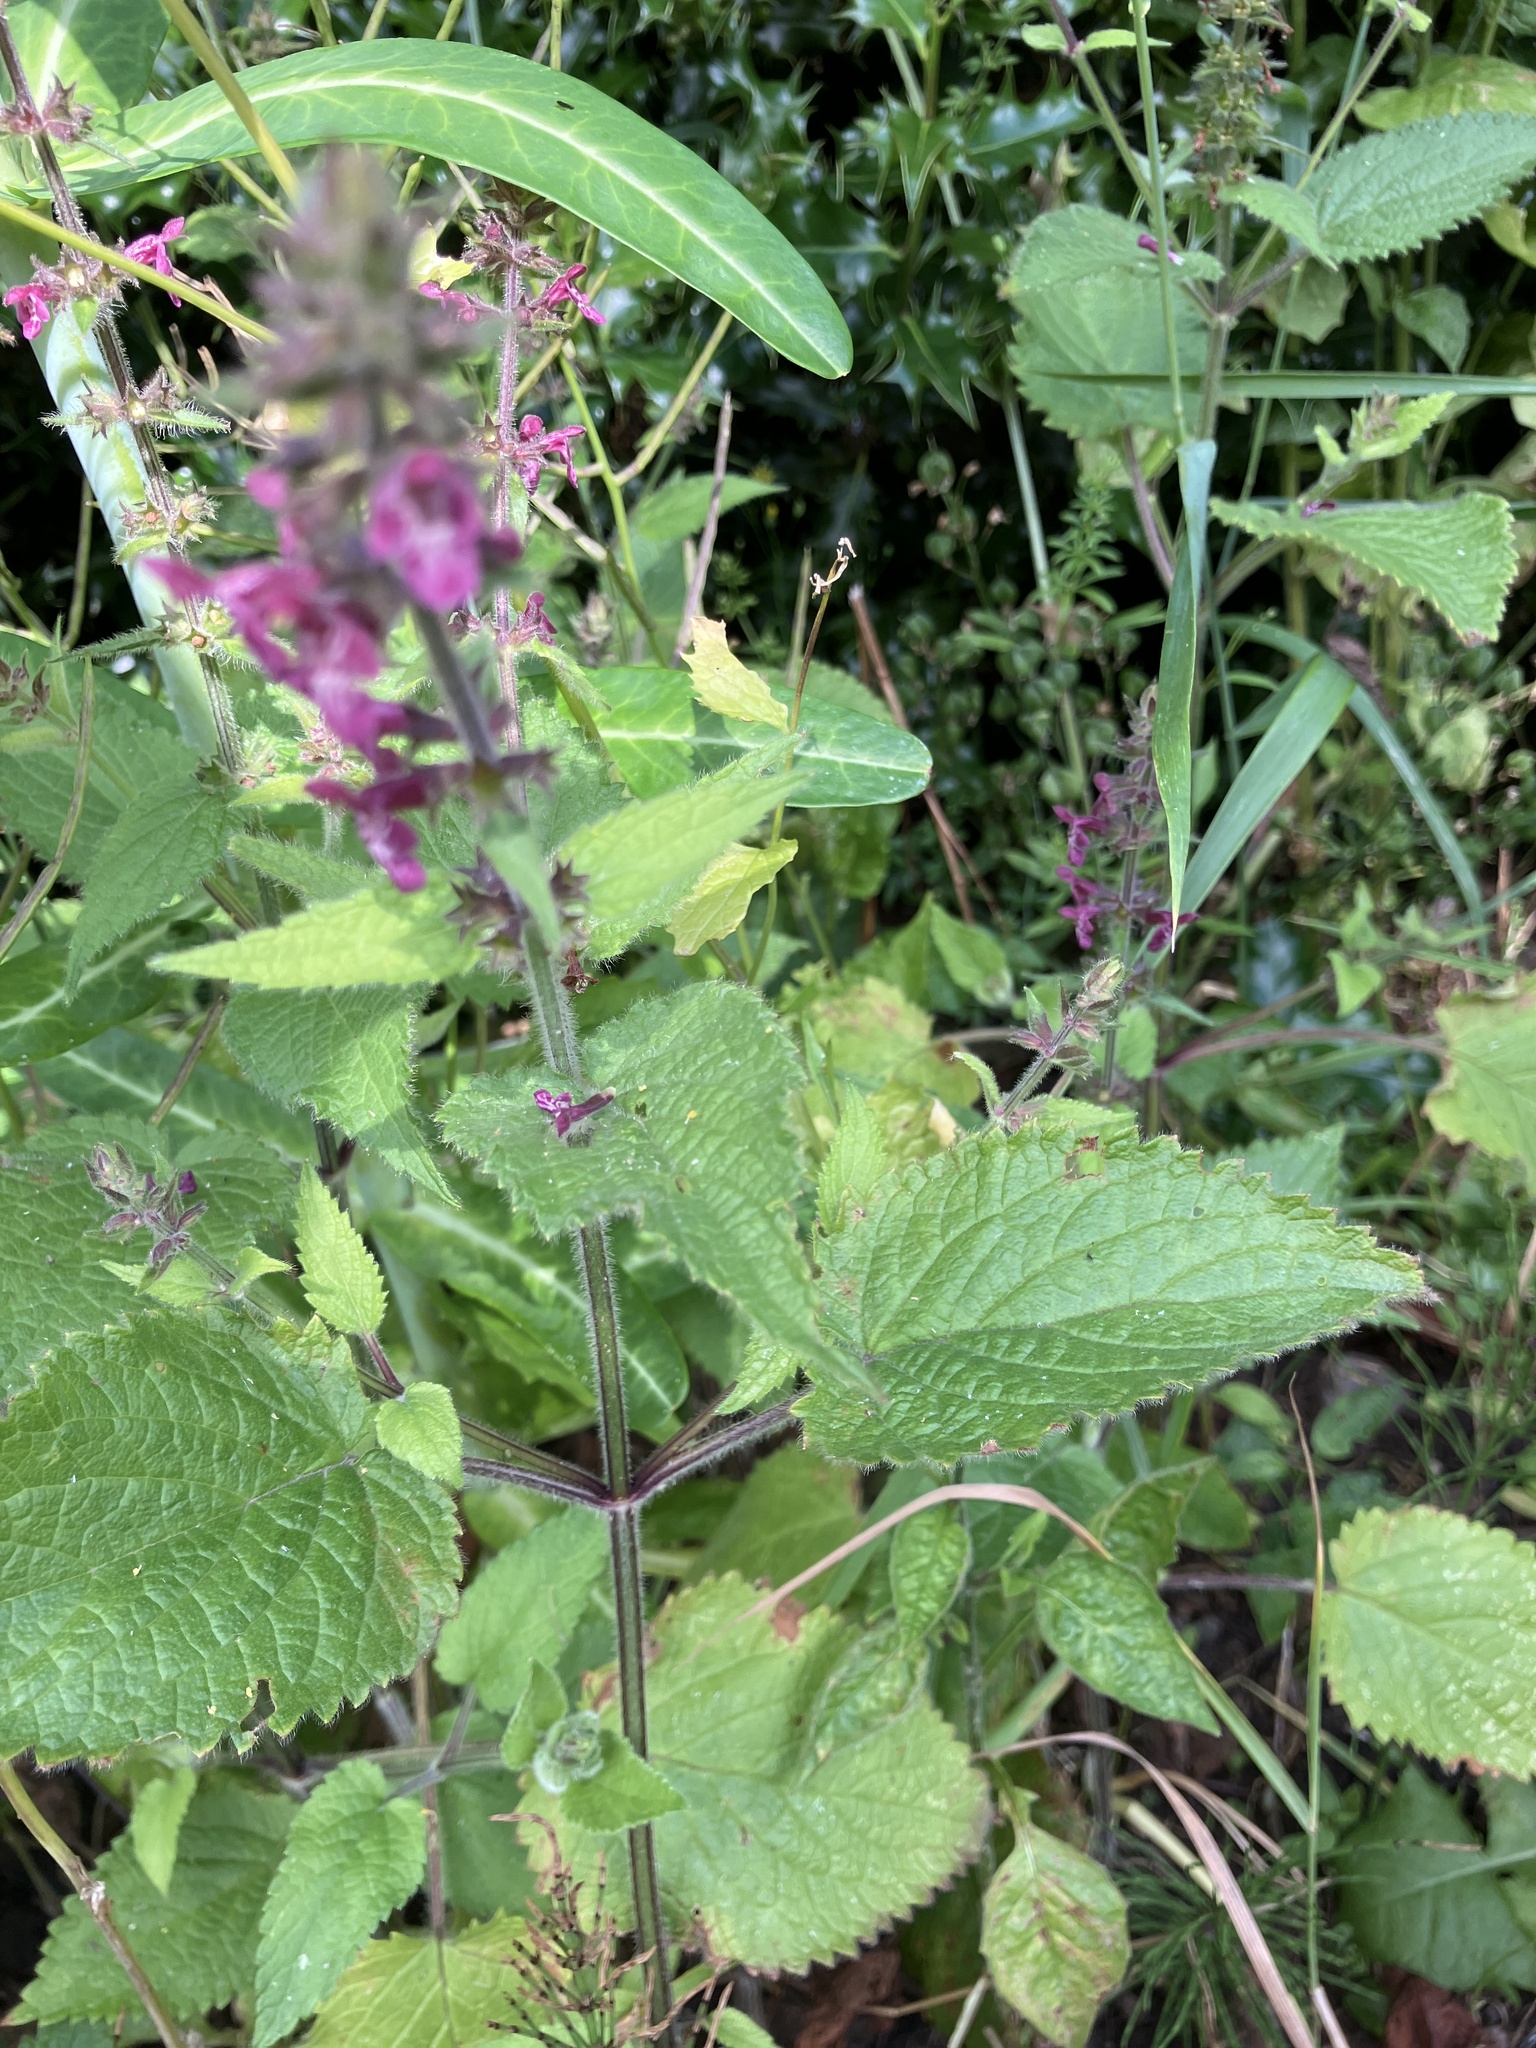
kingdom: Plantae
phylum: Tracheophyta
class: Magnoliopsida
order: Lamiales
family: Lamiaceae
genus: Stachys
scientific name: Stachys sylvatica
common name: Hedge woundwort
